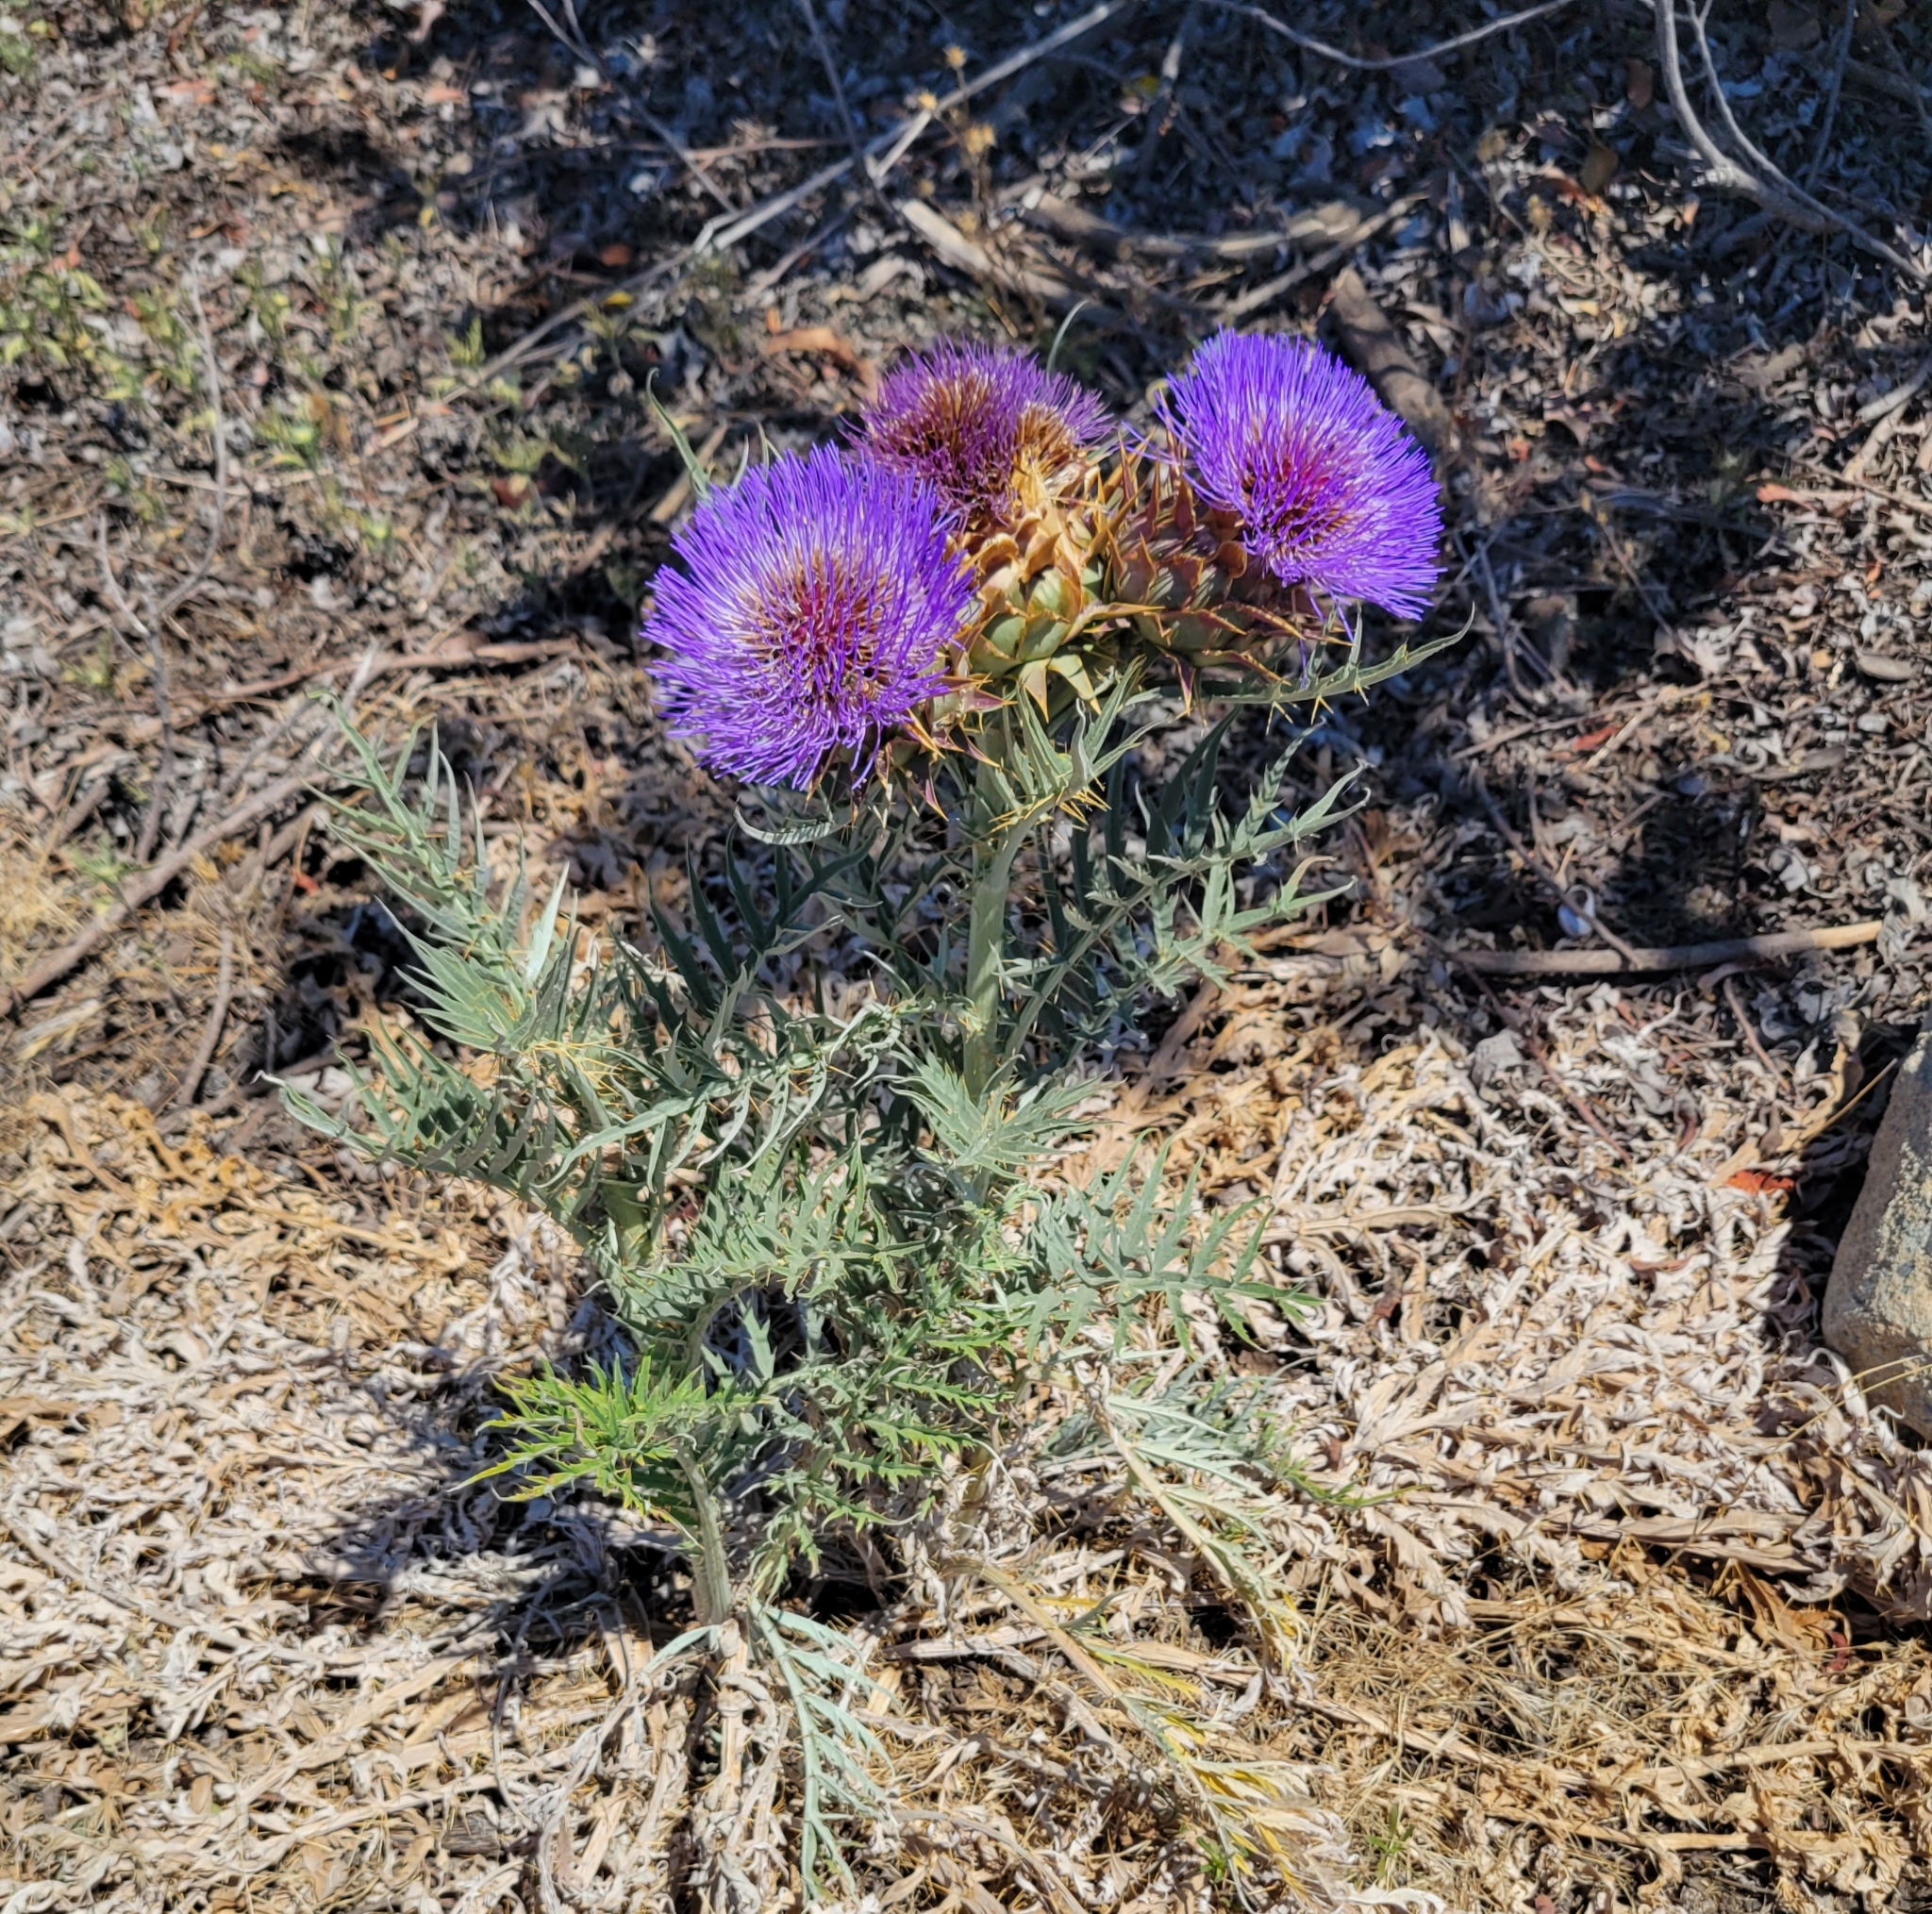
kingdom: Plantae
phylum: Tracheophyta
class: Magnoliopsida
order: Asterales
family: Asteraceae
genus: Cynara
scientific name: Cynara cardunculus
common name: Globe artichoke
